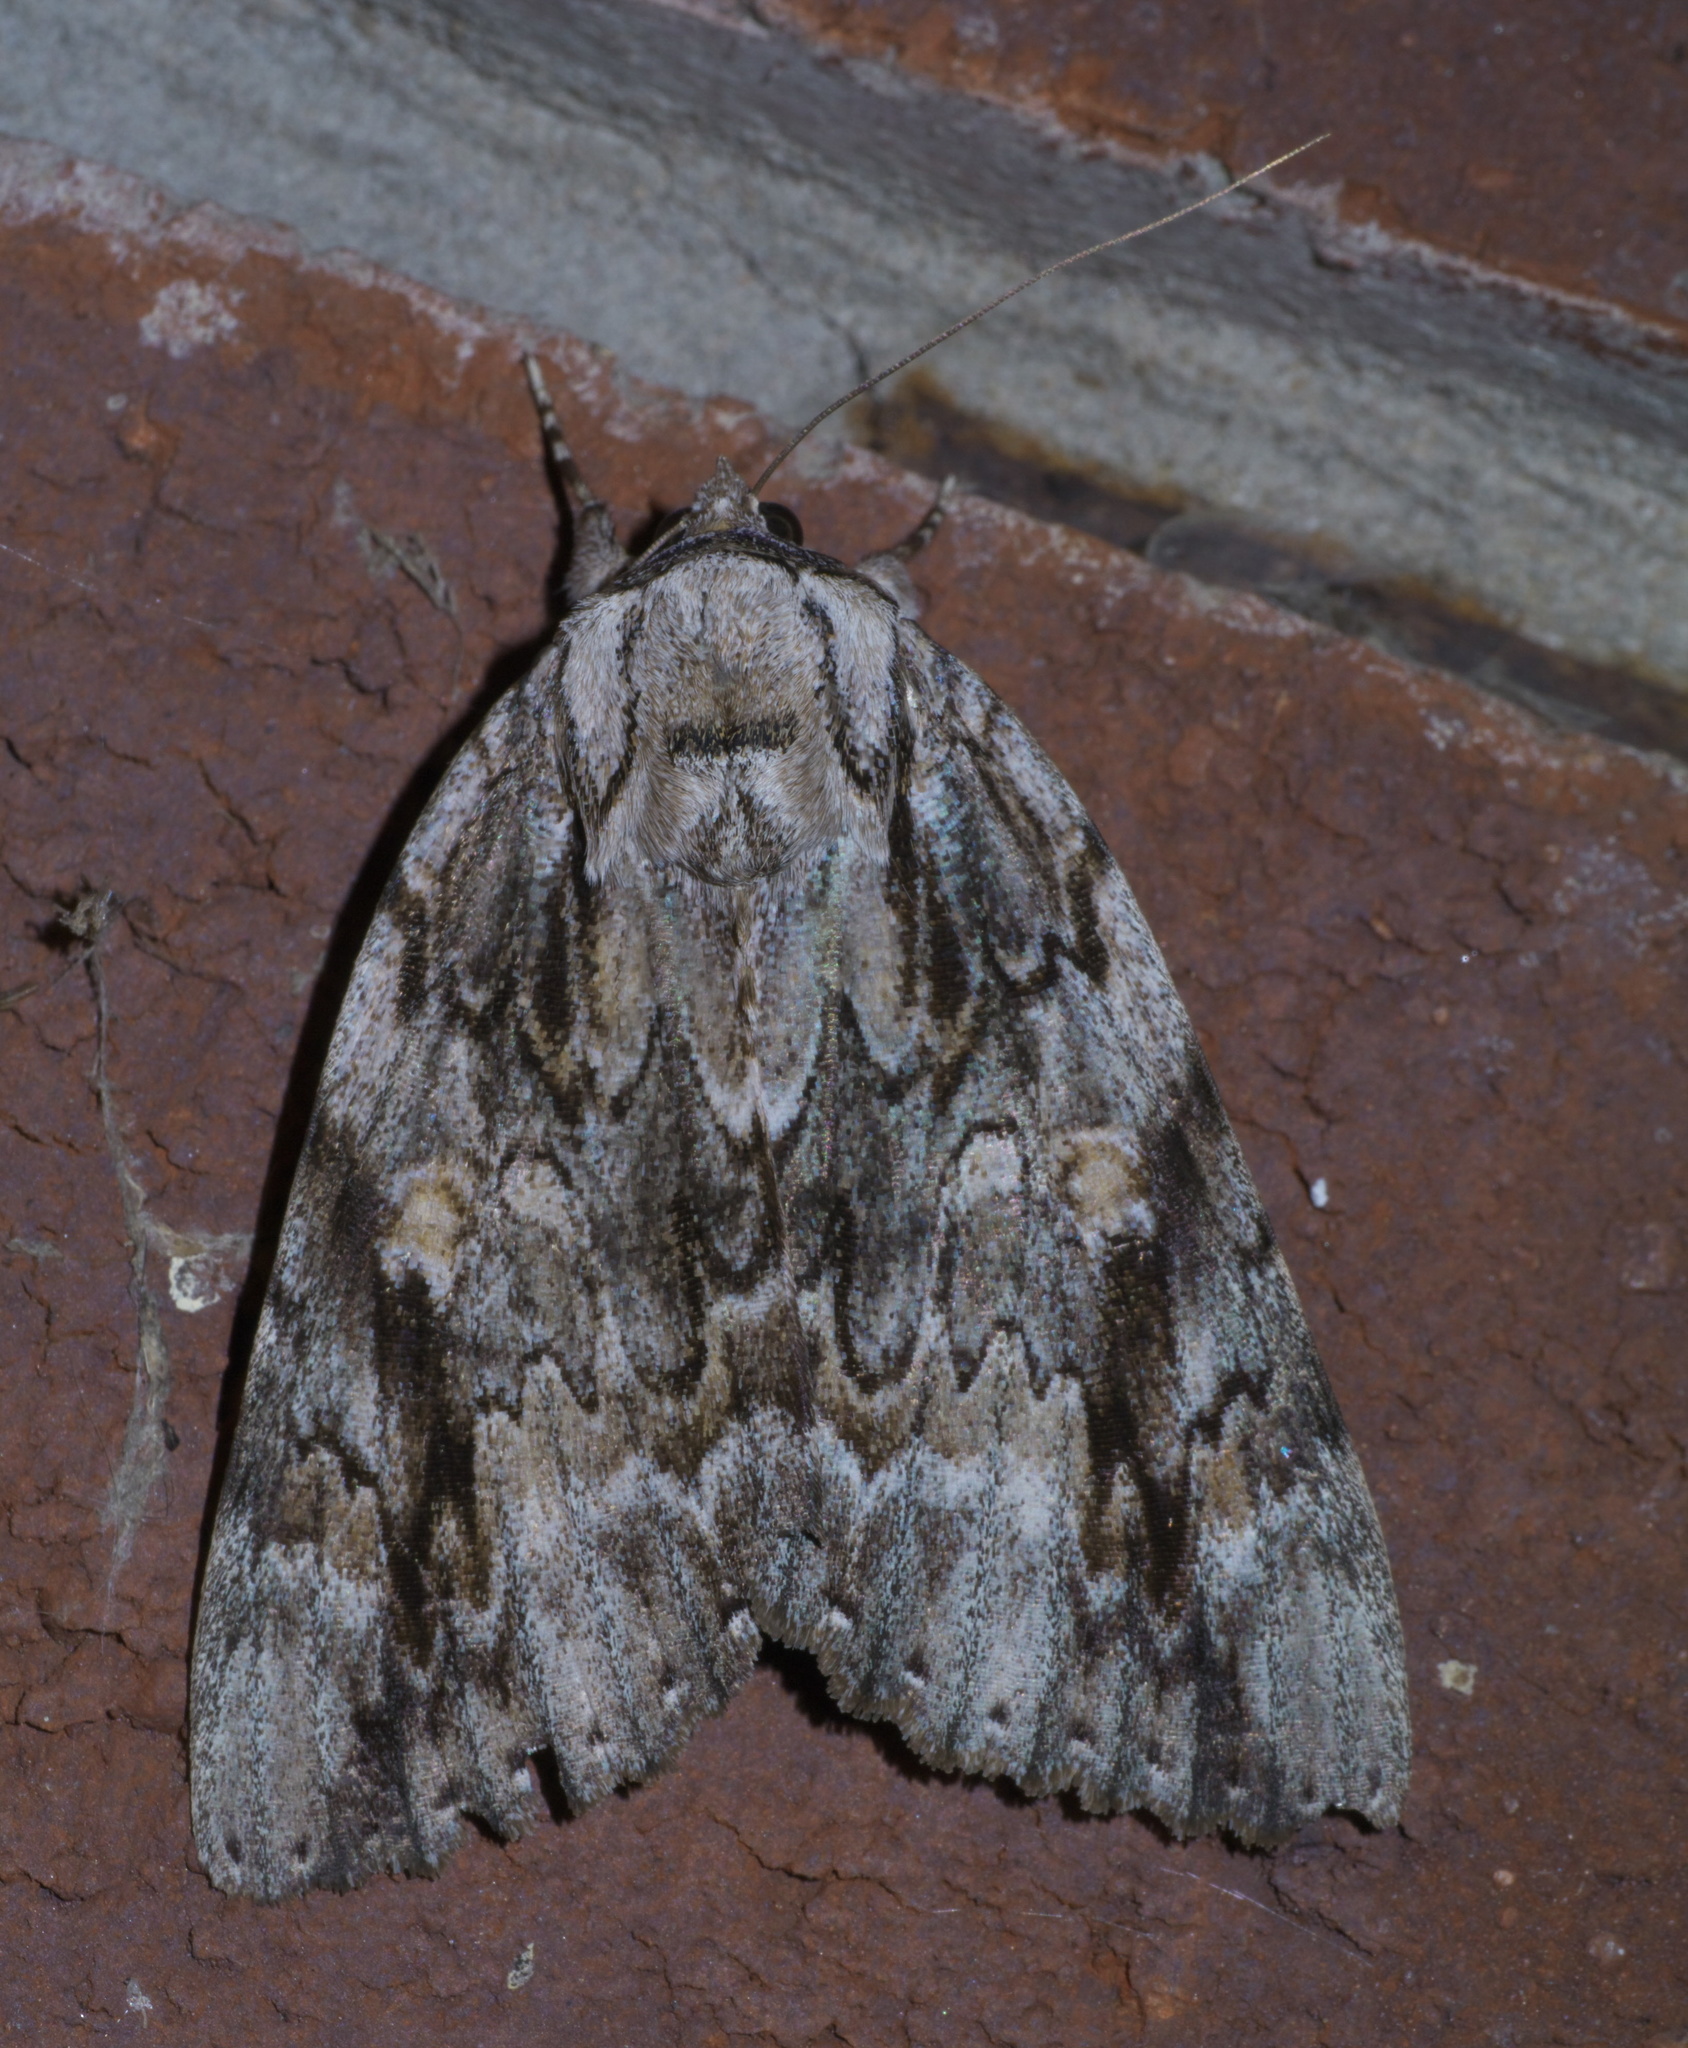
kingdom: Animalia
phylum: Arthropoda
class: Insecta
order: Lepidoptera
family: Erebidae
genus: Catocala
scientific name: Catocala maestosa
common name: Sad underwing
